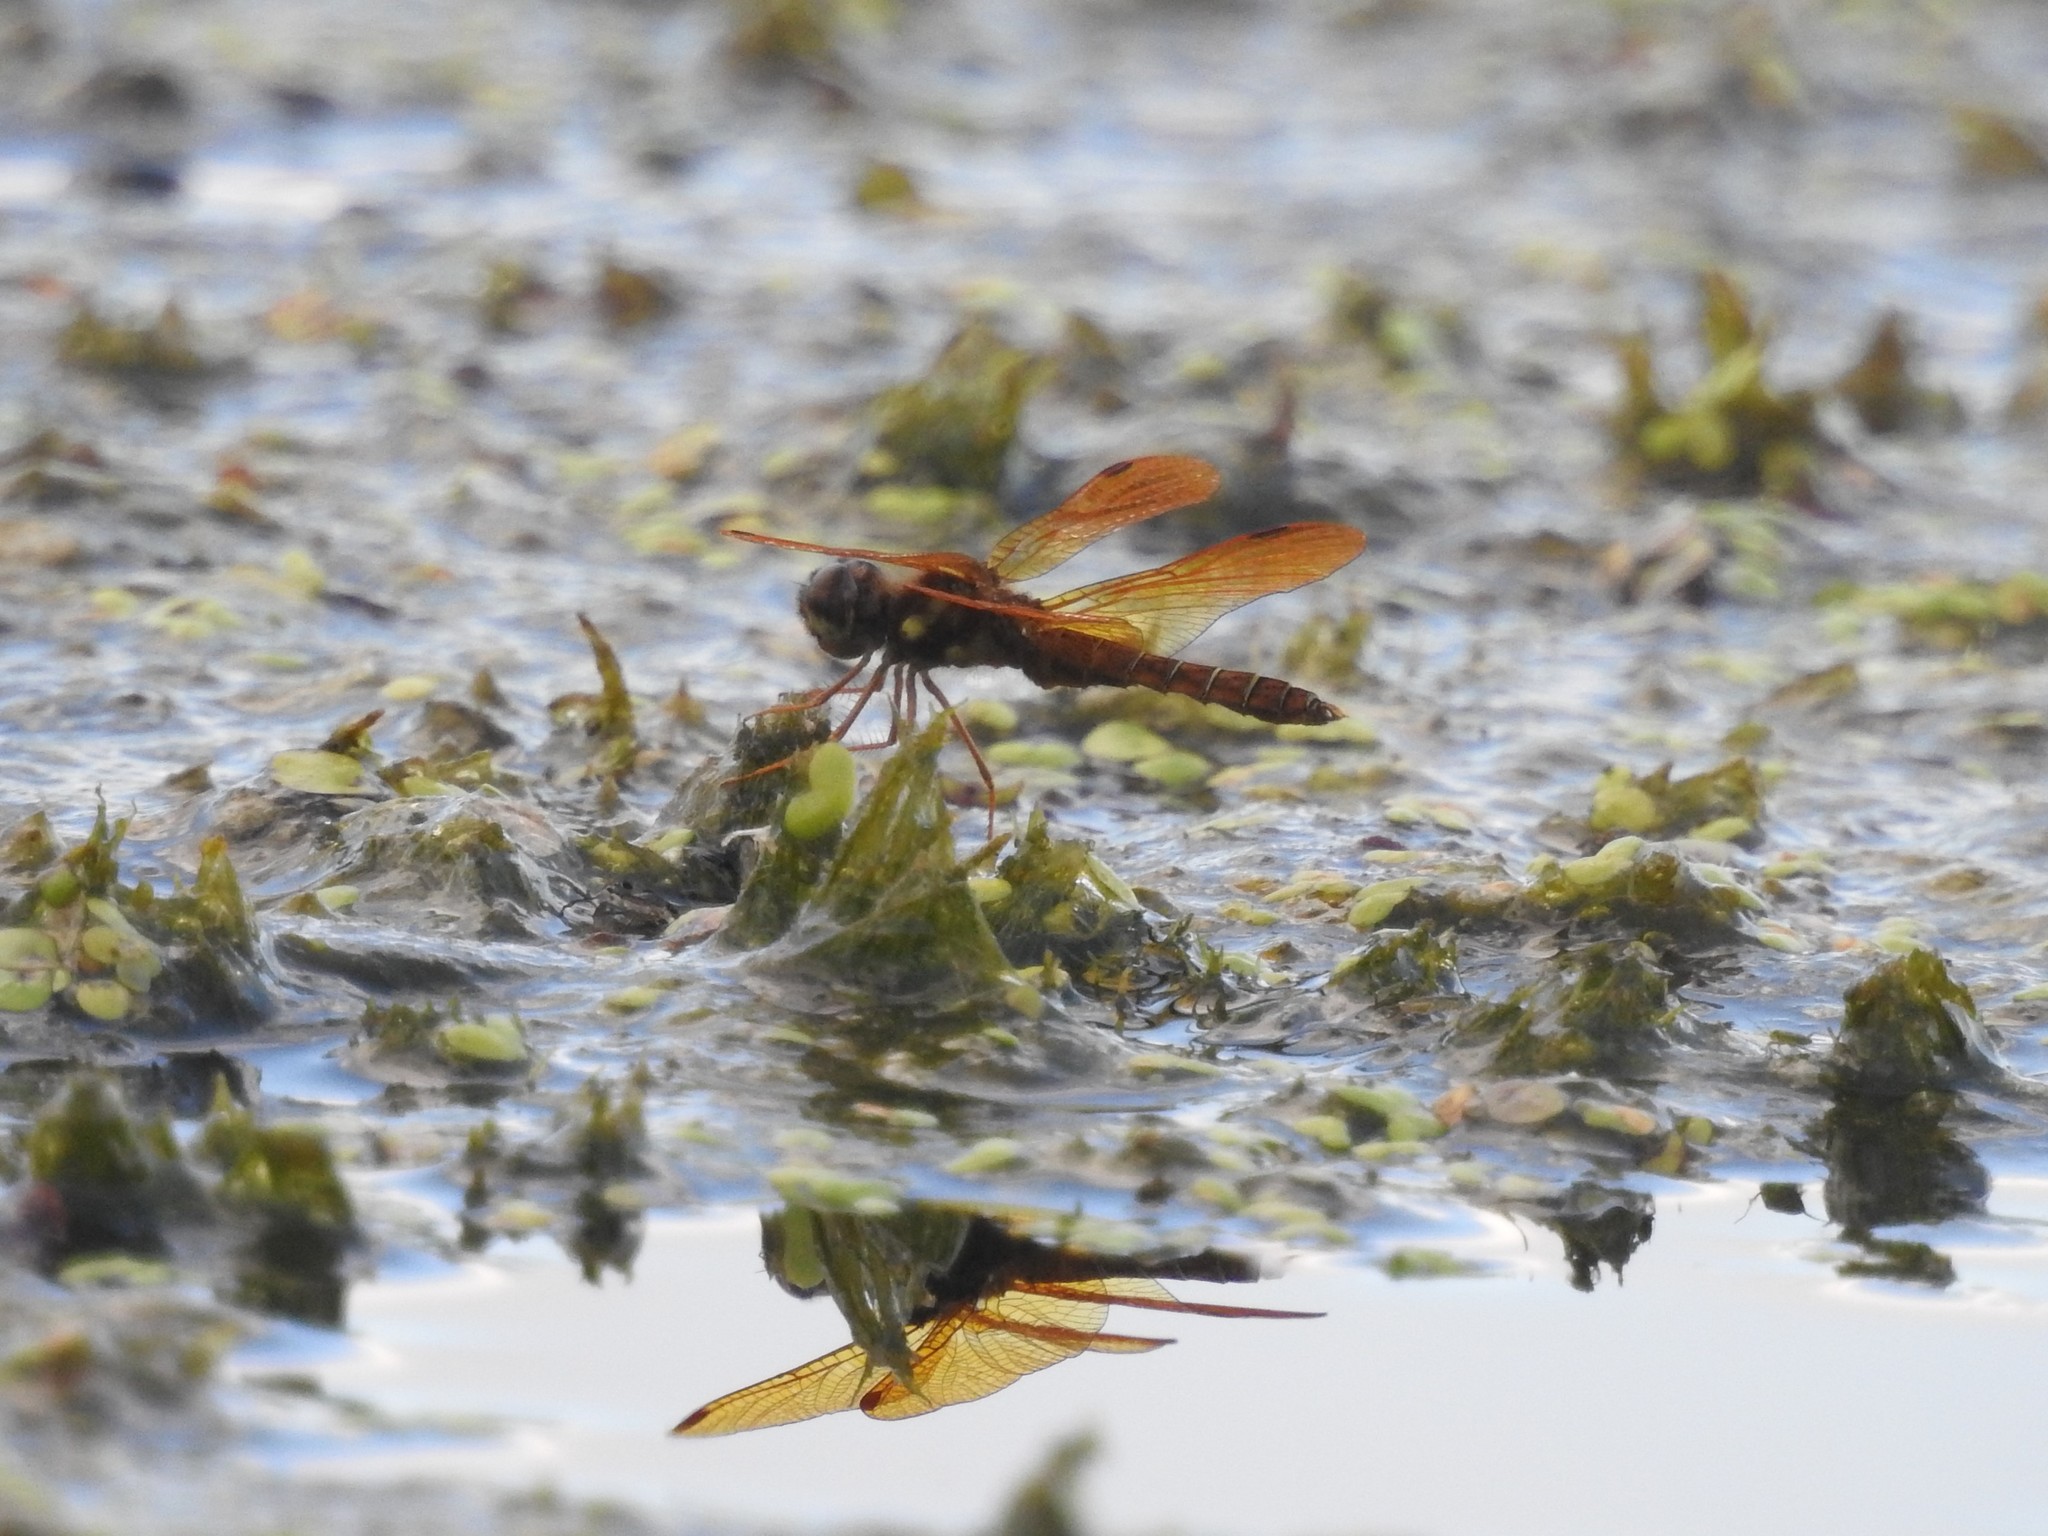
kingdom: Animalia
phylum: Arthropoda
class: Insecta
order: Odonata
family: Libellulidae
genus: Perithemis
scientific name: Perithemis tenera
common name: Eastern amberwing
